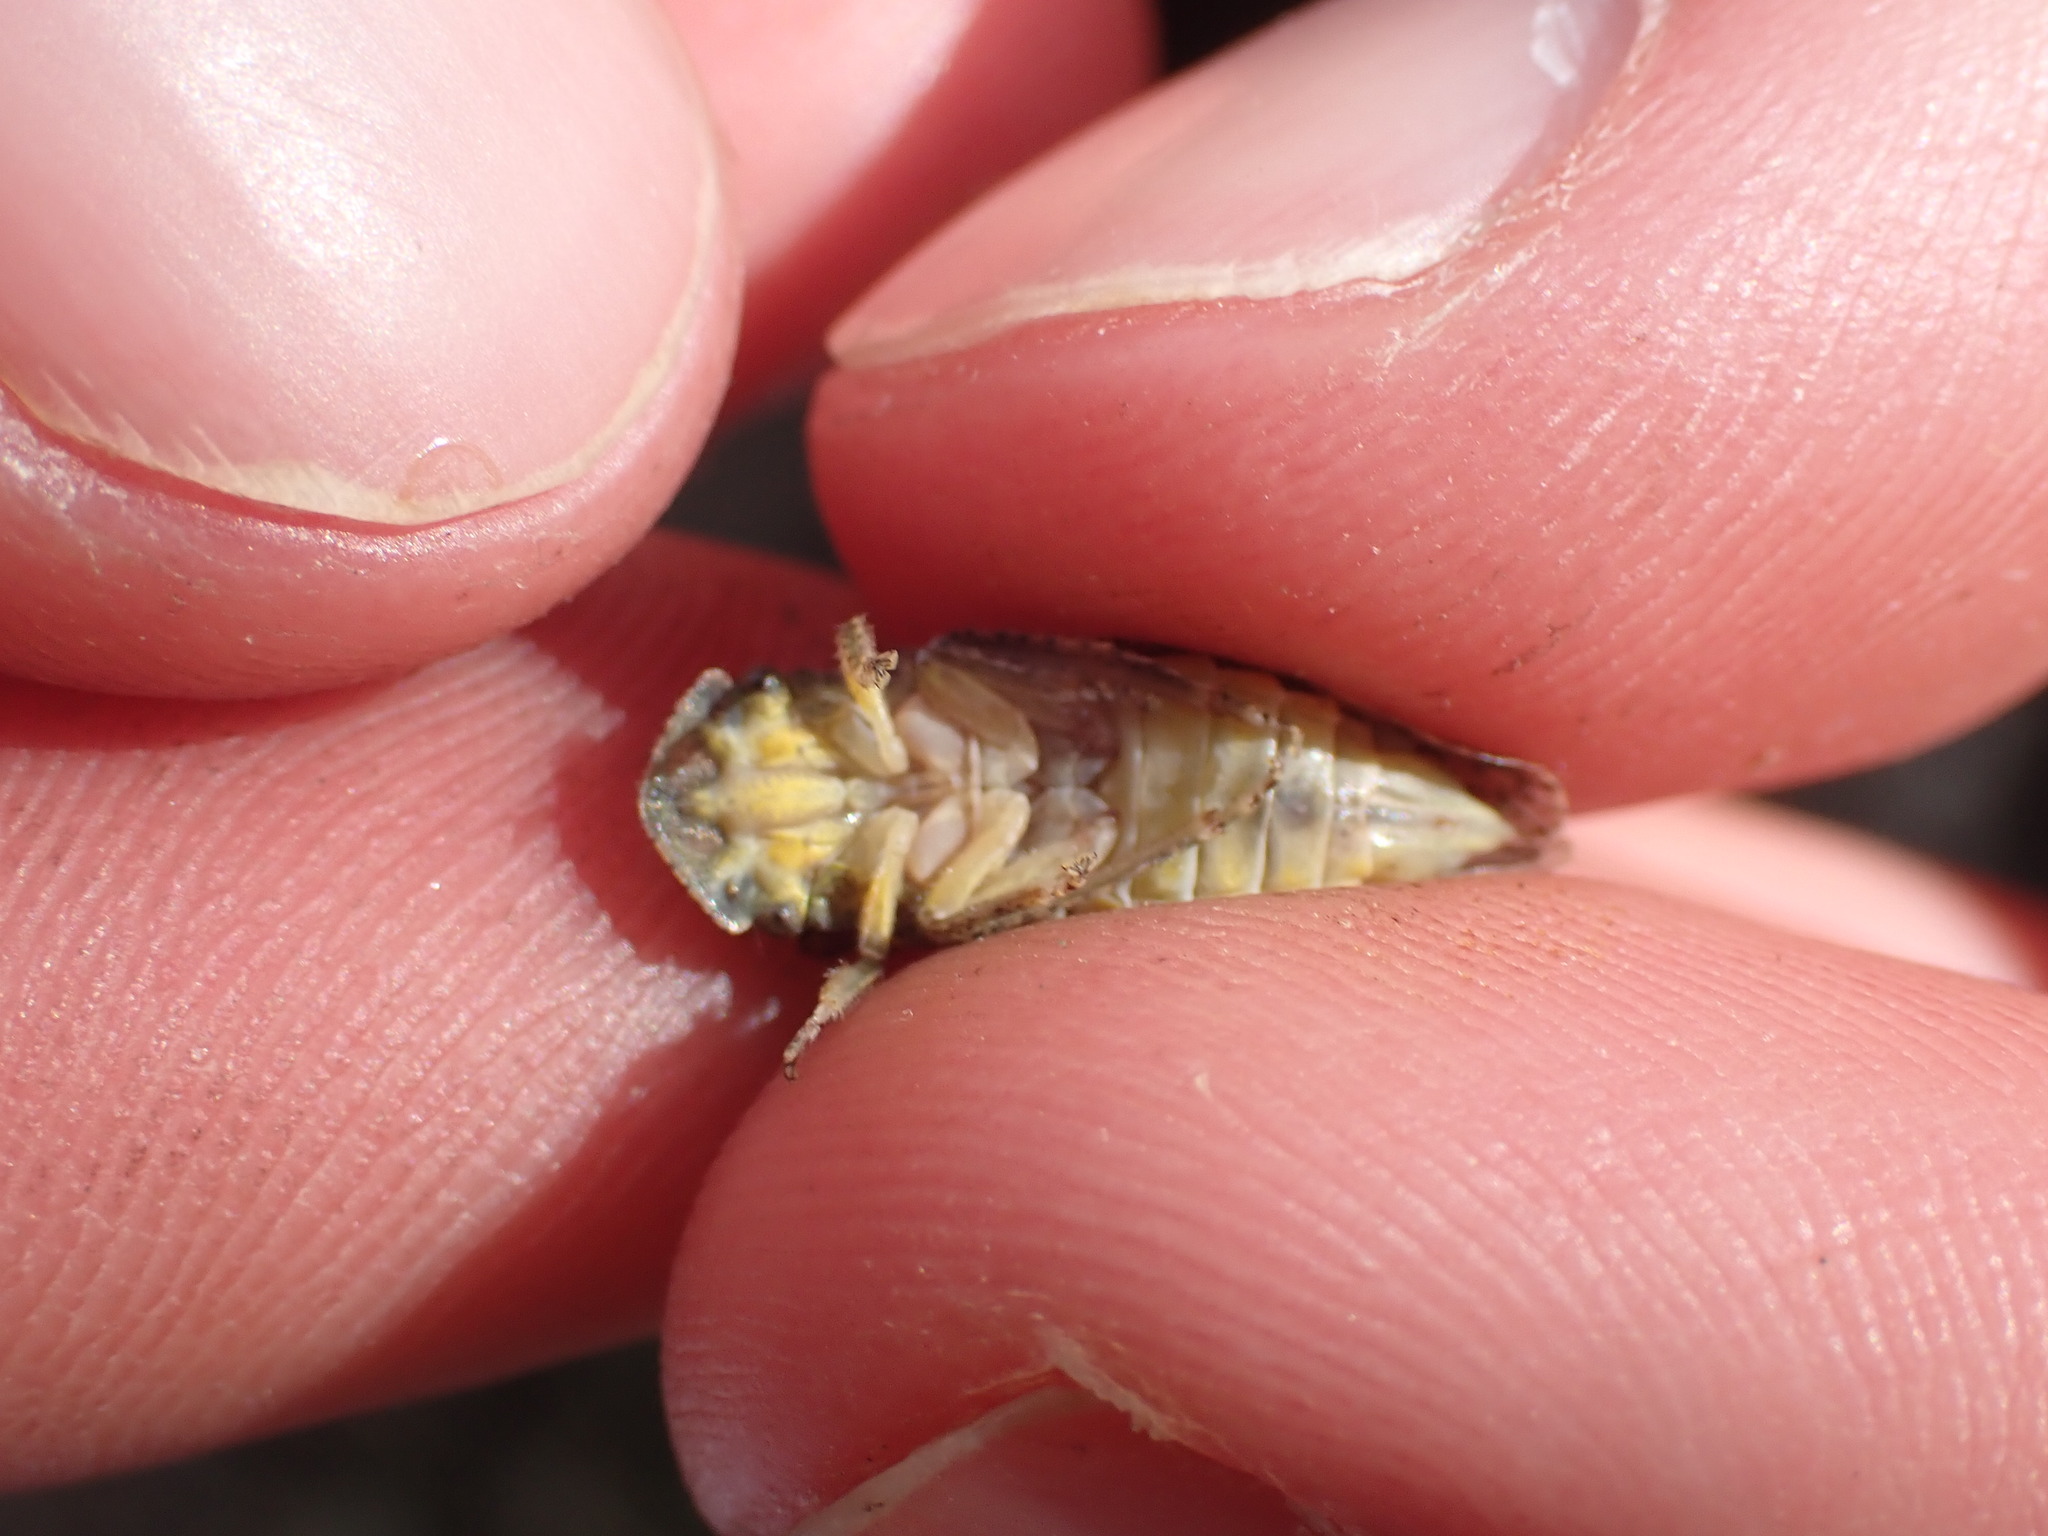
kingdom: Animalia
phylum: Arthropoda
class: Insecta
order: Hemiptera
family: Cicadellidae
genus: Ledra
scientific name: Ledra aurita
